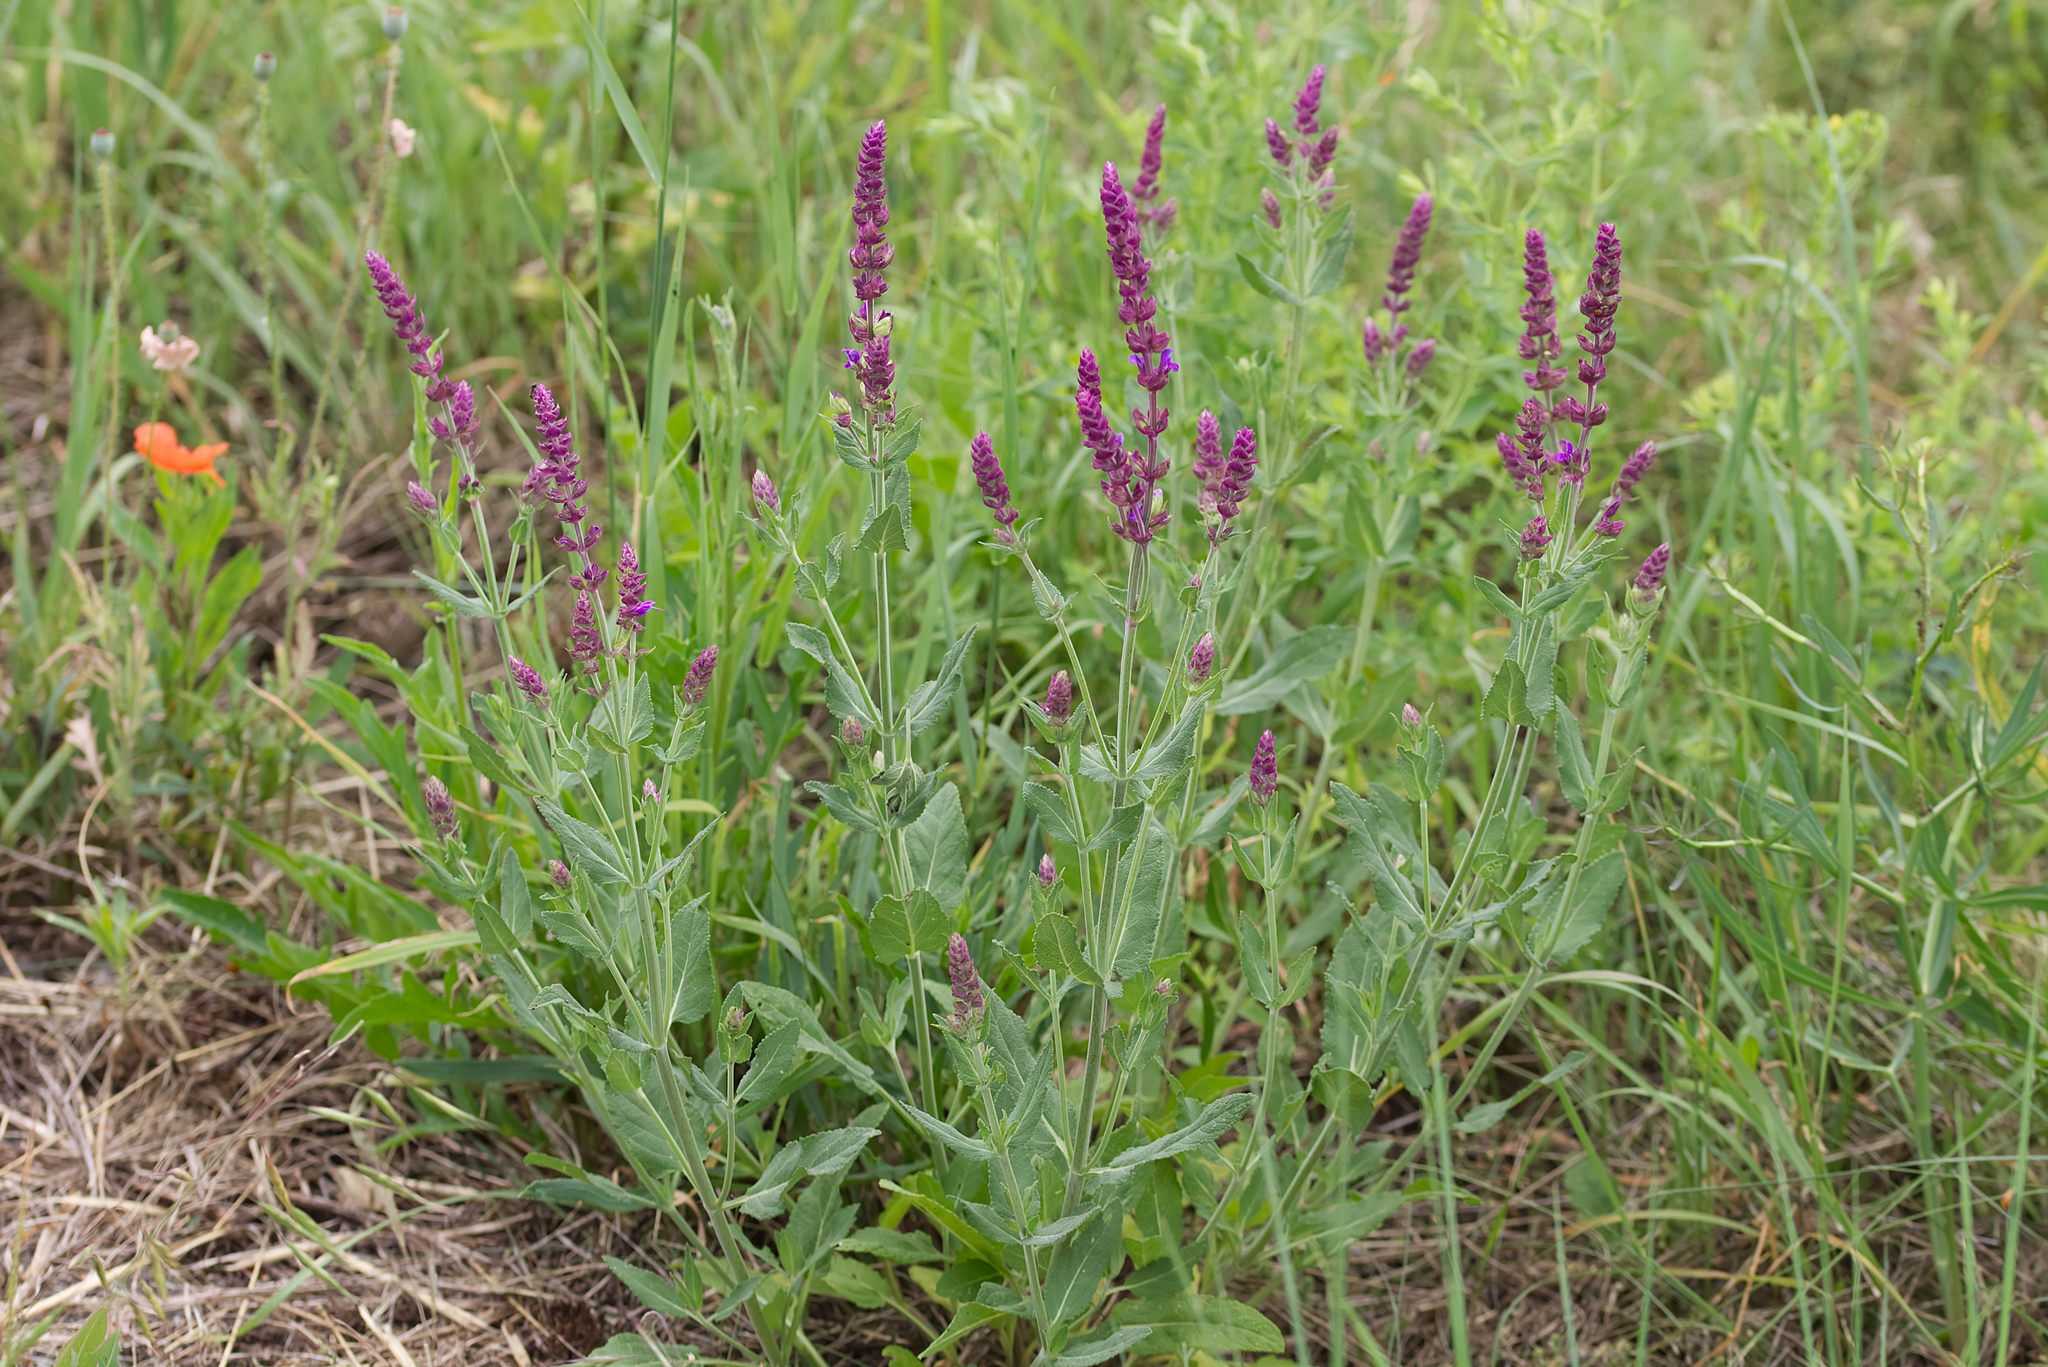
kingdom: Plantae
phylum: Tracheophyta
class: Magnoliopsida
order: Lamiales
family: Lamiaceae
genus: Salvia
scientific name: Salvia nemorosa
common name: Balkan clary
